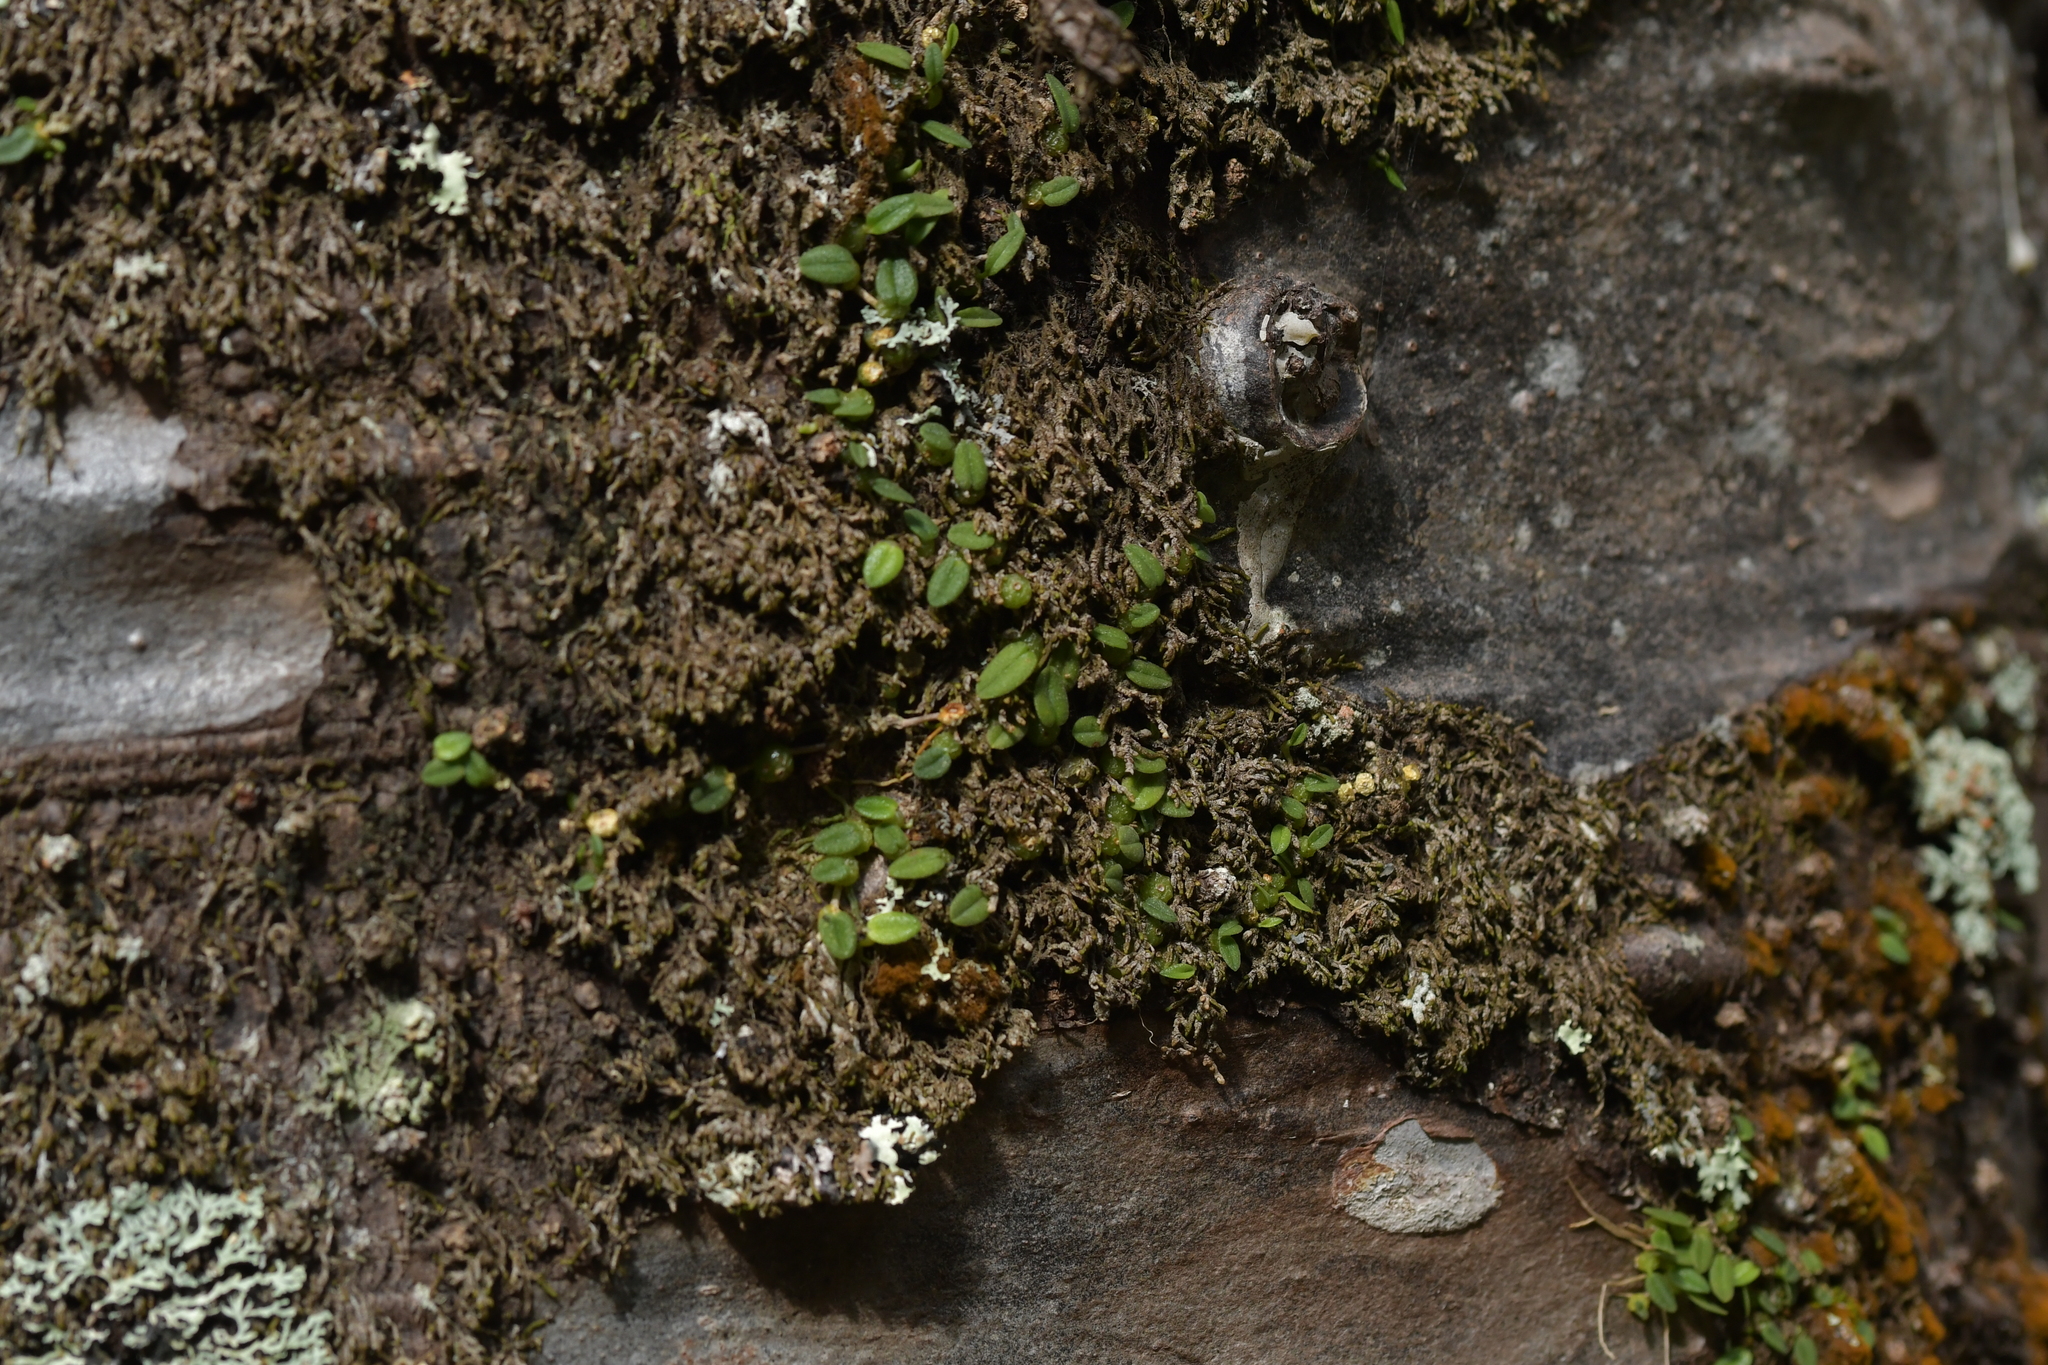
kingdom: Plantae
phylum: Tracheophyta
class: Liliopsida
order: Asparagales
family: Orchidaceae
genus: Bulbophyllum
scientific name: Bulbophyllum pygmaeum
